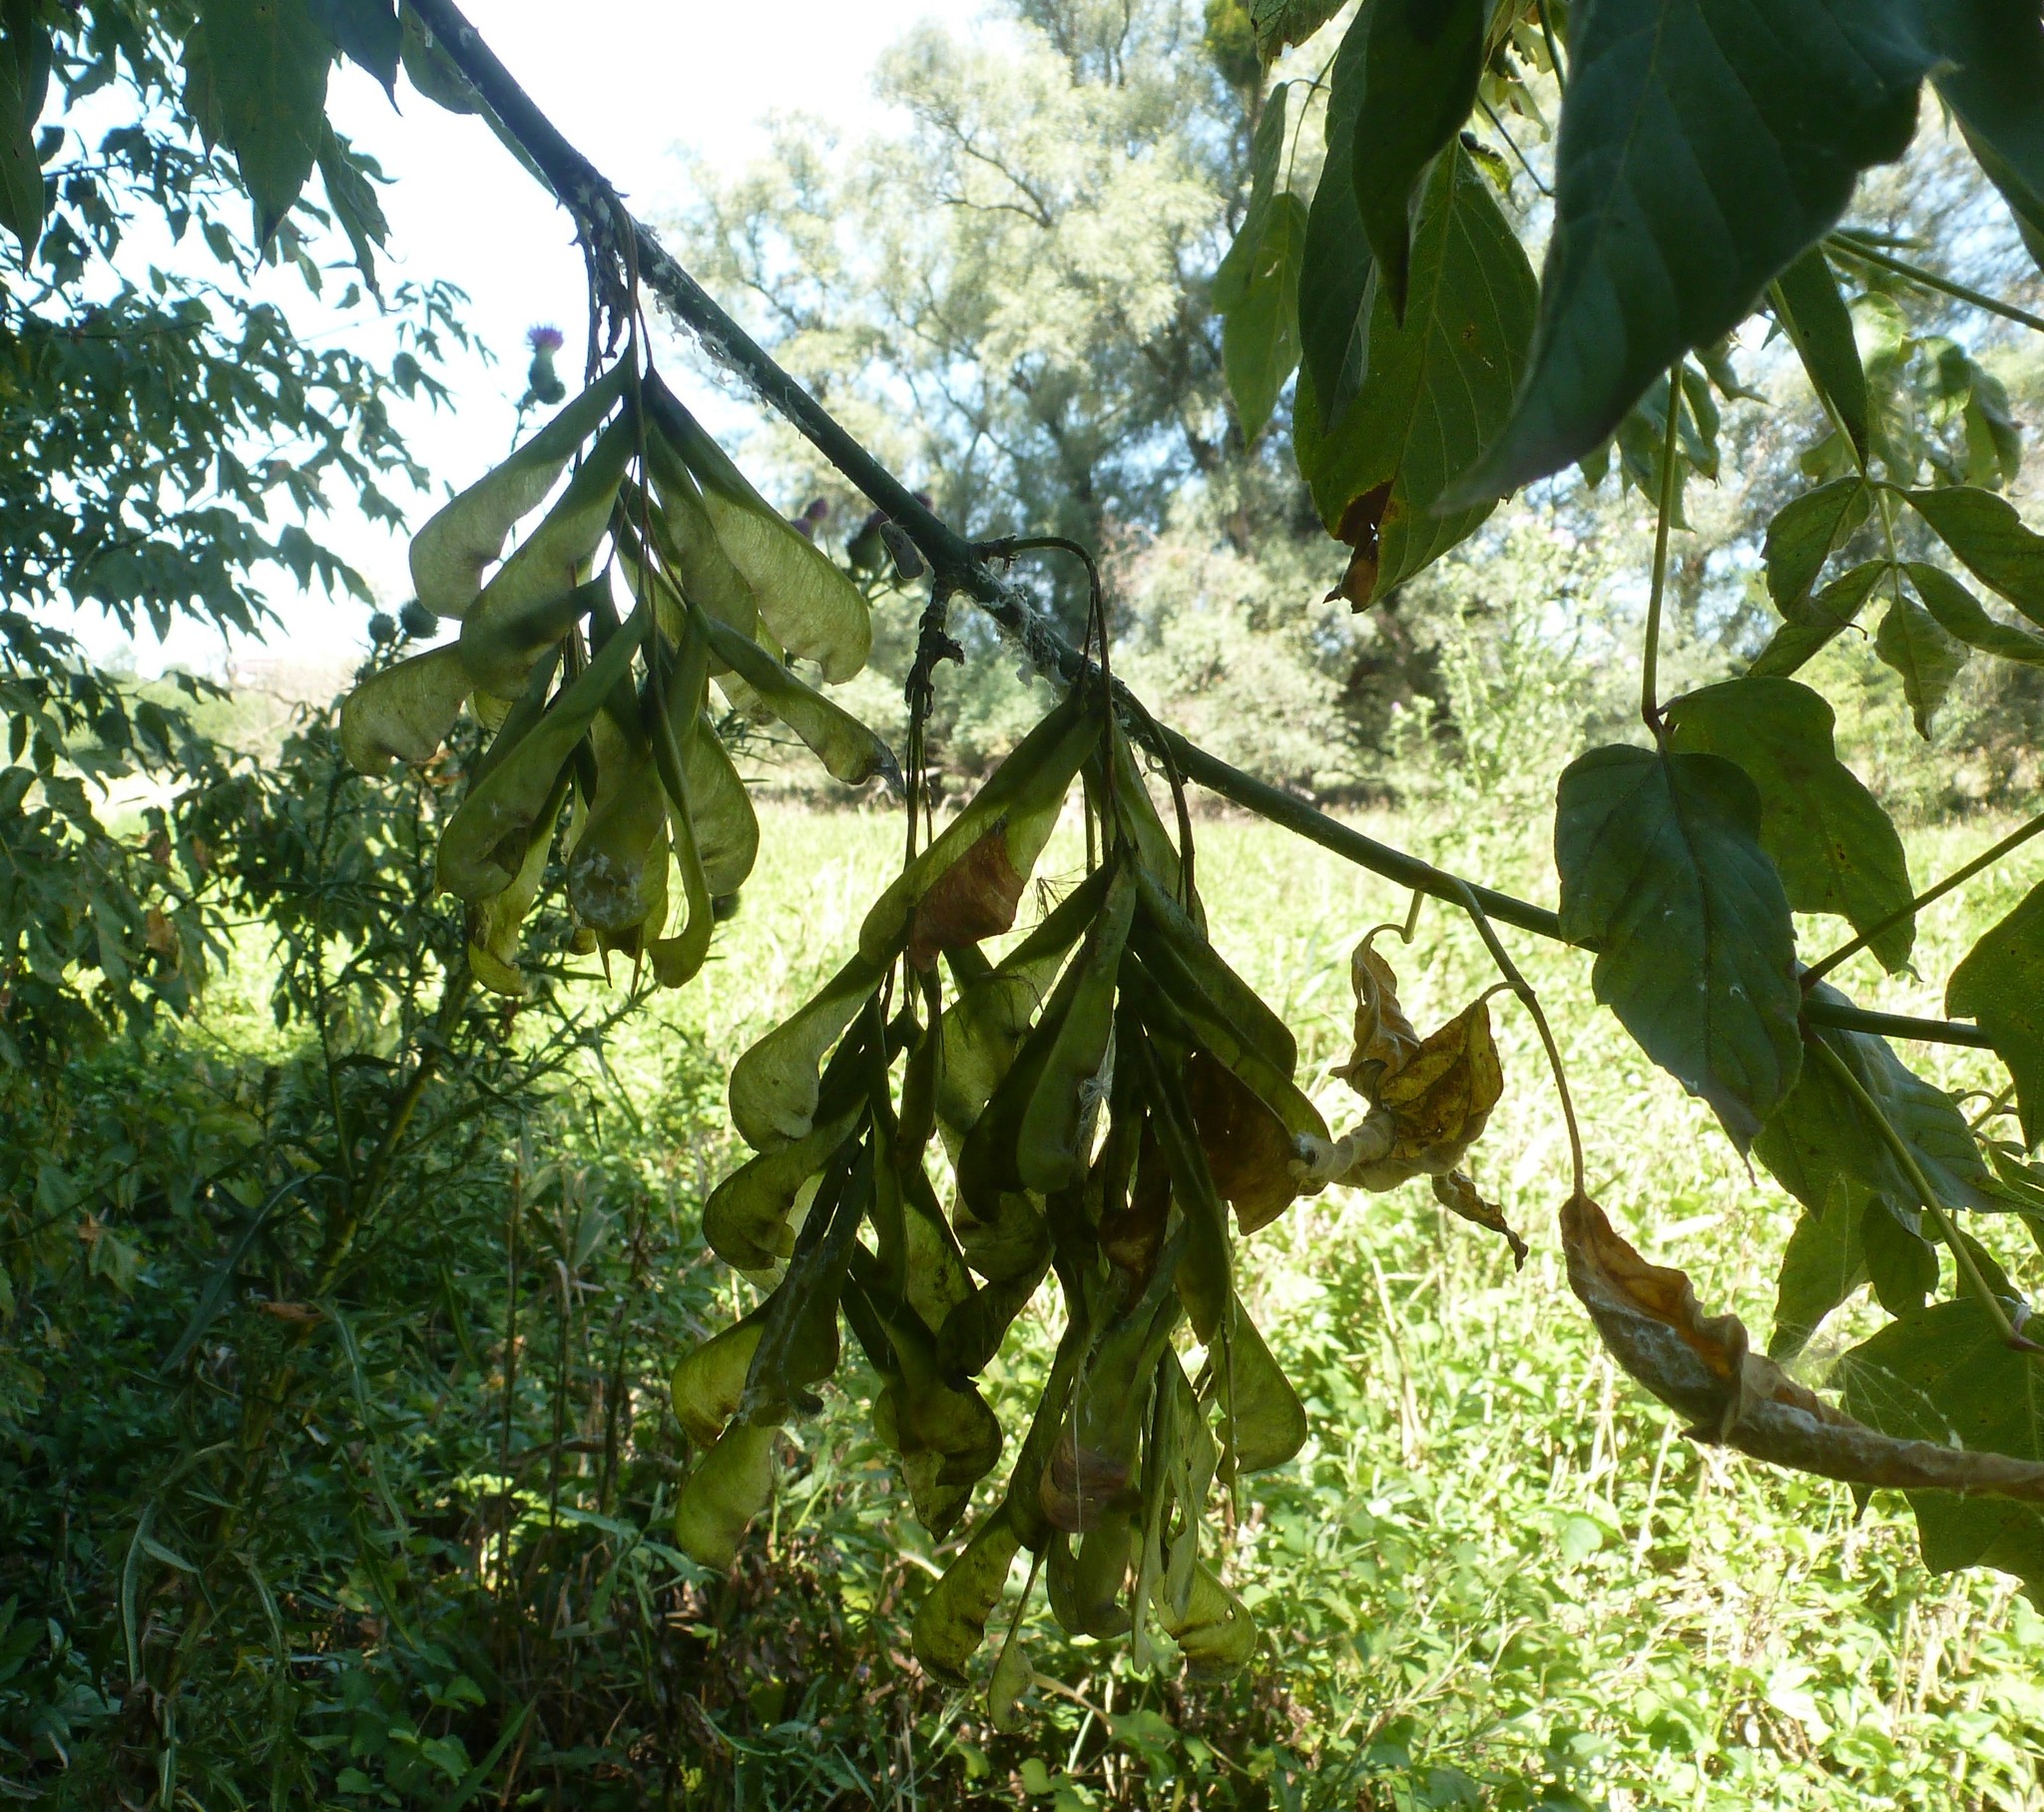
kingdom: Plantae
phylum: Tracheophyta
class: Magnoliopsida
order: Sapindales
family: Sapindaceae
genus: Acer
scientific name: Acer negundo
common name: Ashleaf maple
